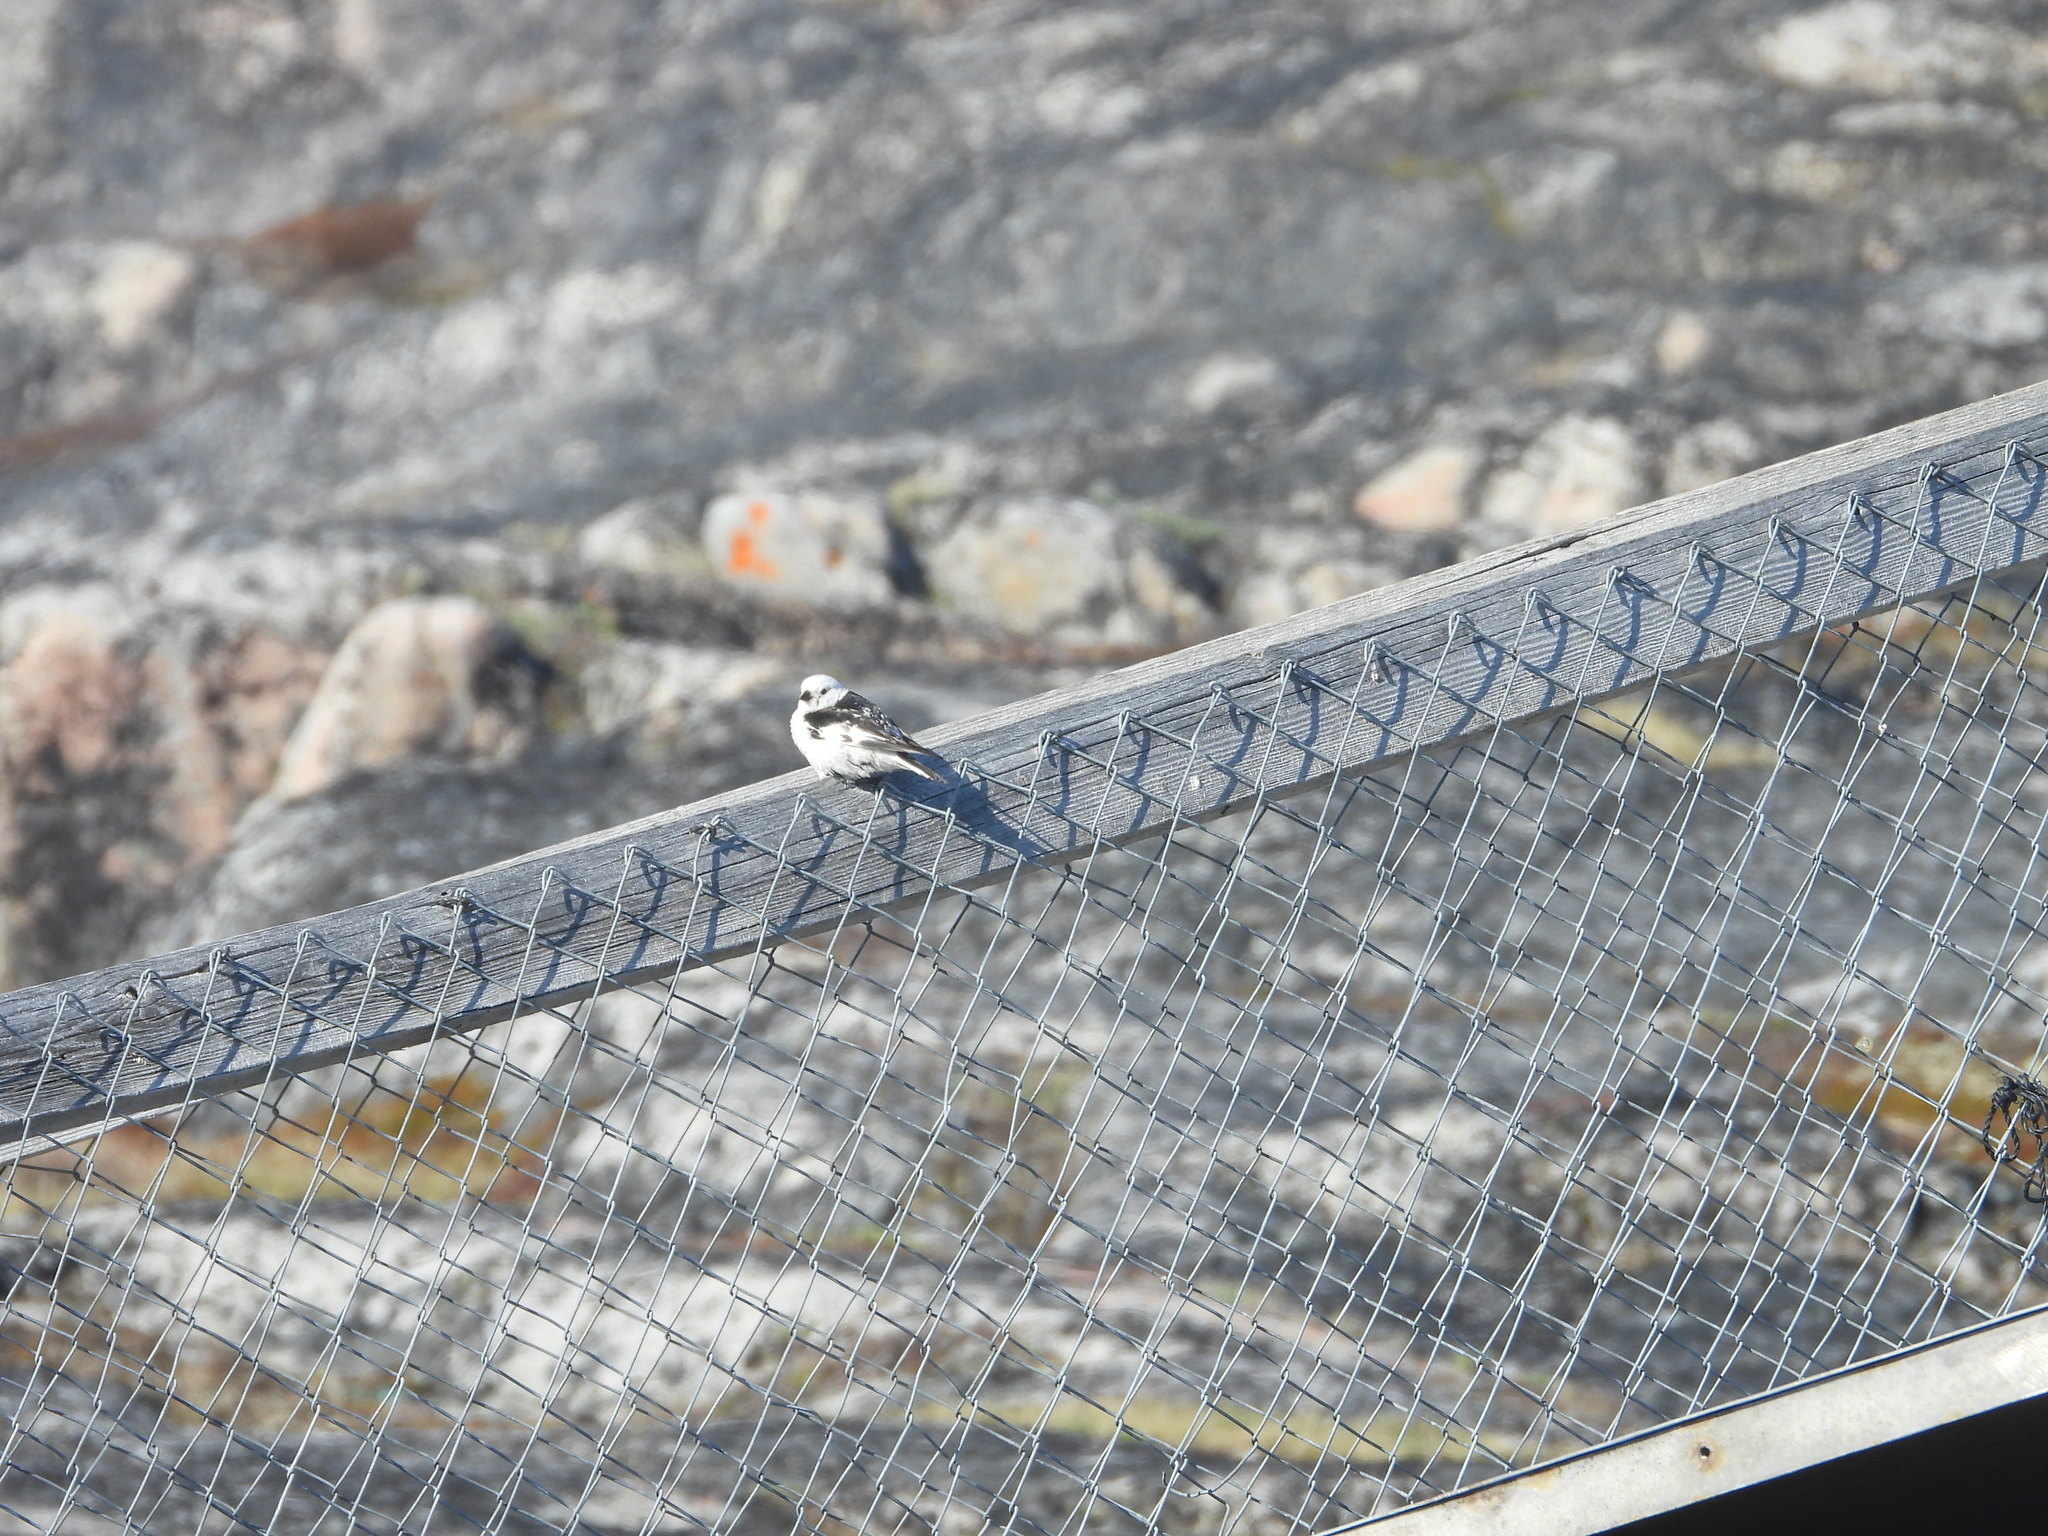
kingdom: Animalia
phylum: Chordata
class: Aves
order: Passeriformes
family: Calcariidae
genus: Plectrophenax
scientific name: Plectrophenax nivalis
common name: Snow bunting
